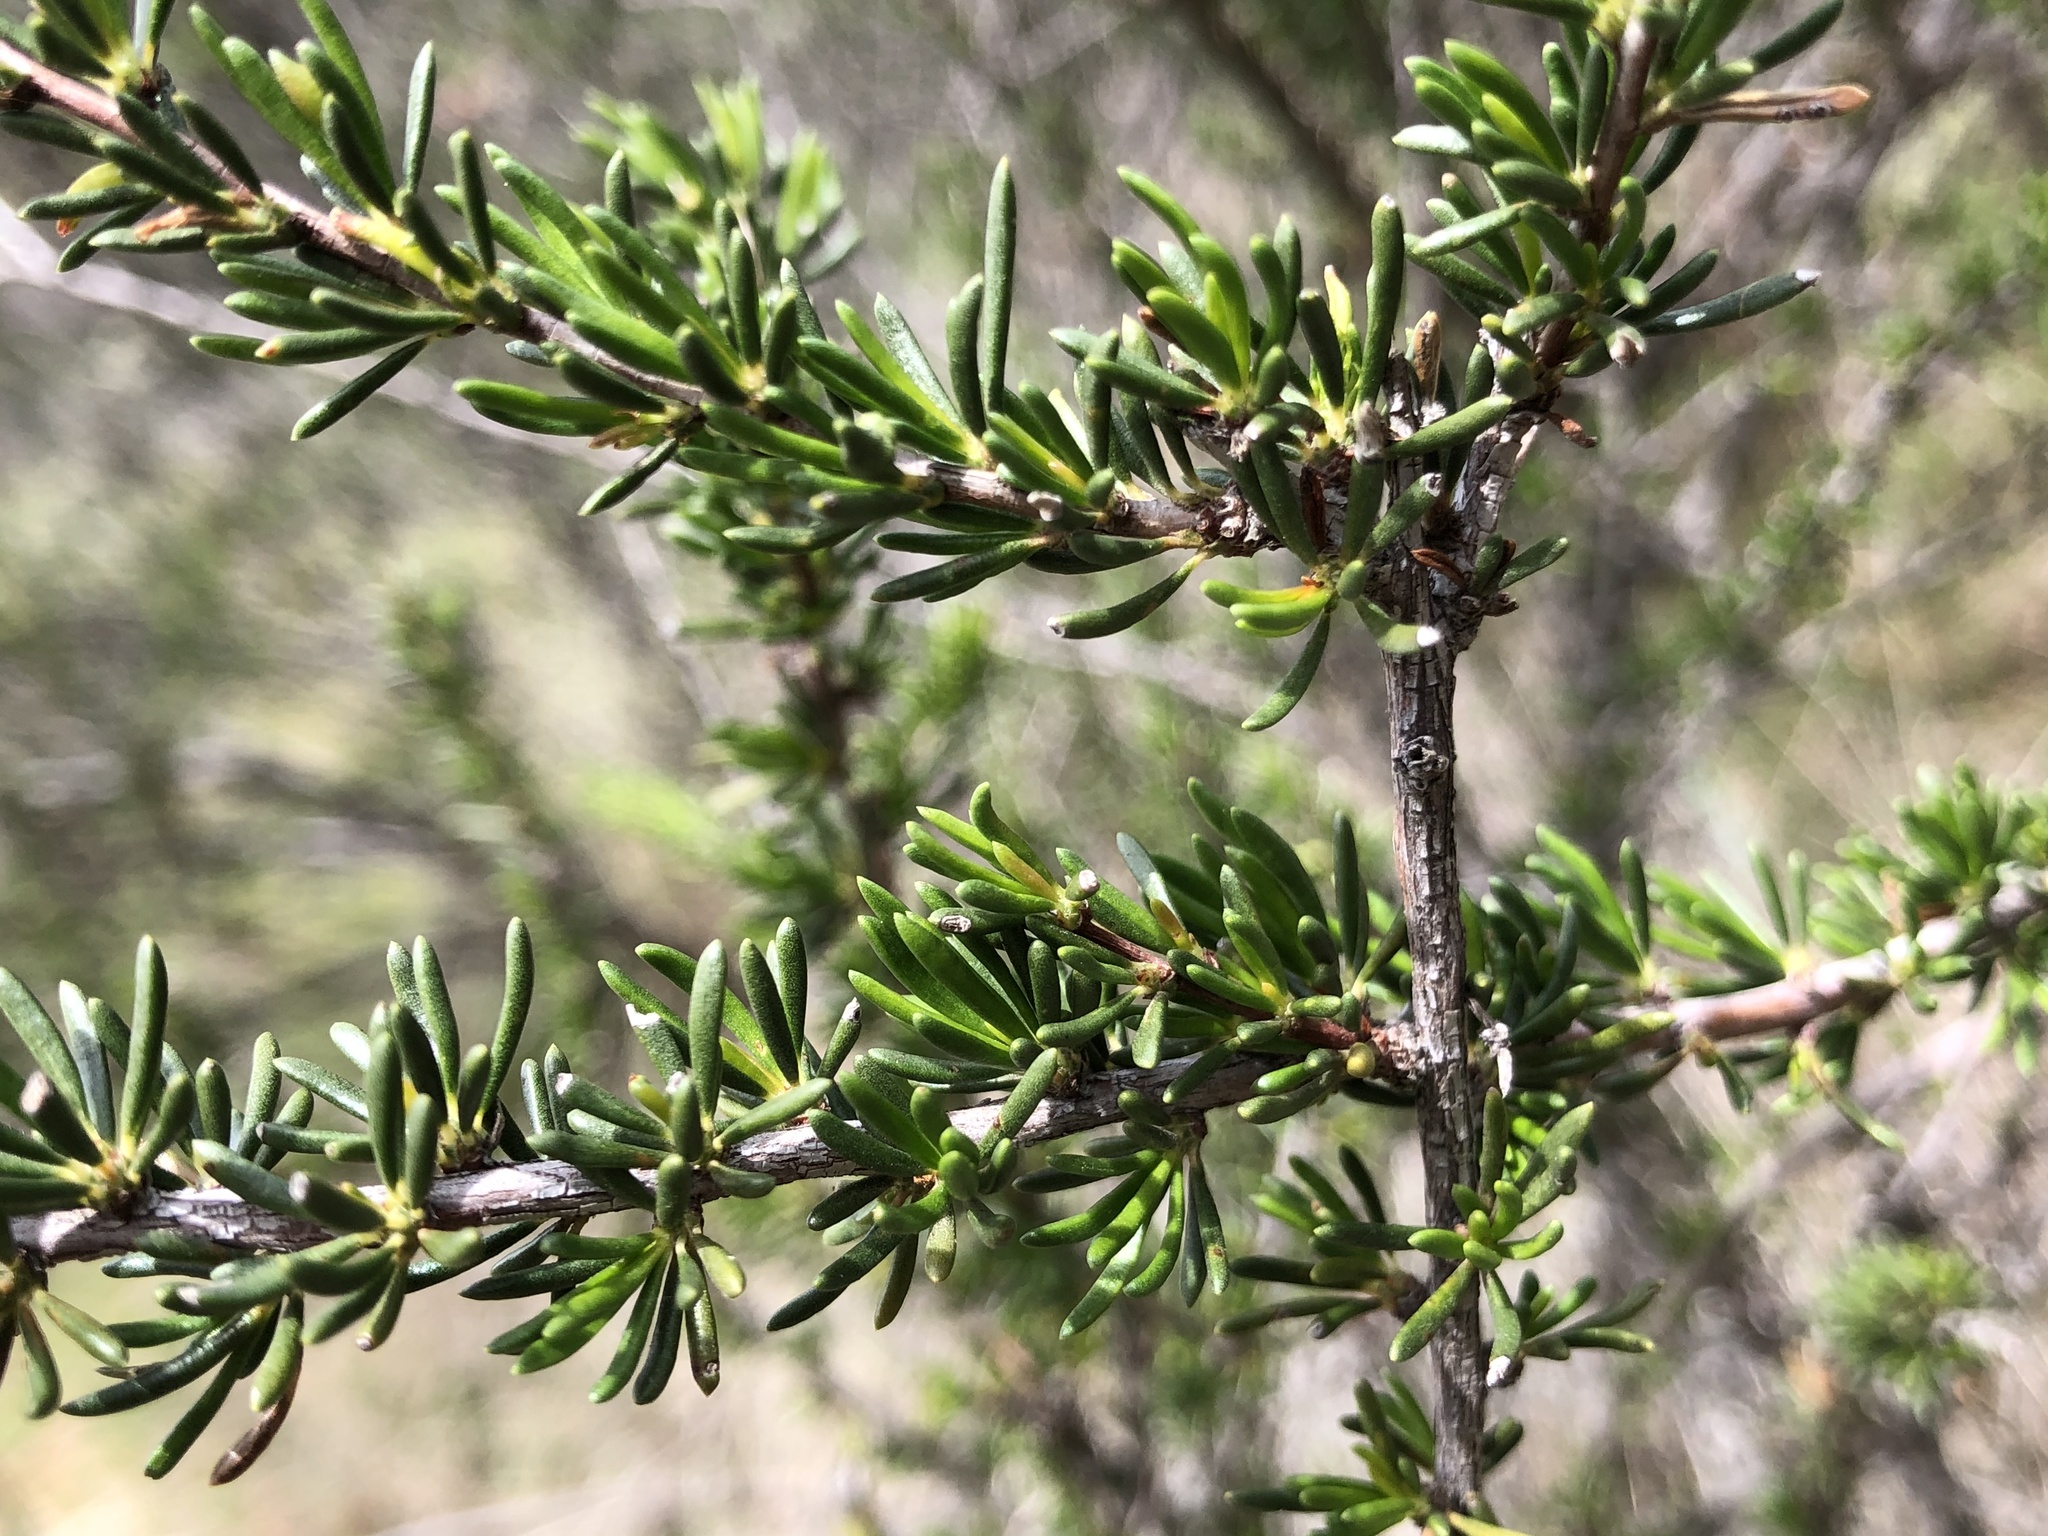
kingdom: Plantae
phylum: Tracheophyta
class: Magnoliopsida
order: Rosales
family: Rosaceae
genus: Adenostoma
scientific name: Adenostoma fasciculatum
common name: Chamise
